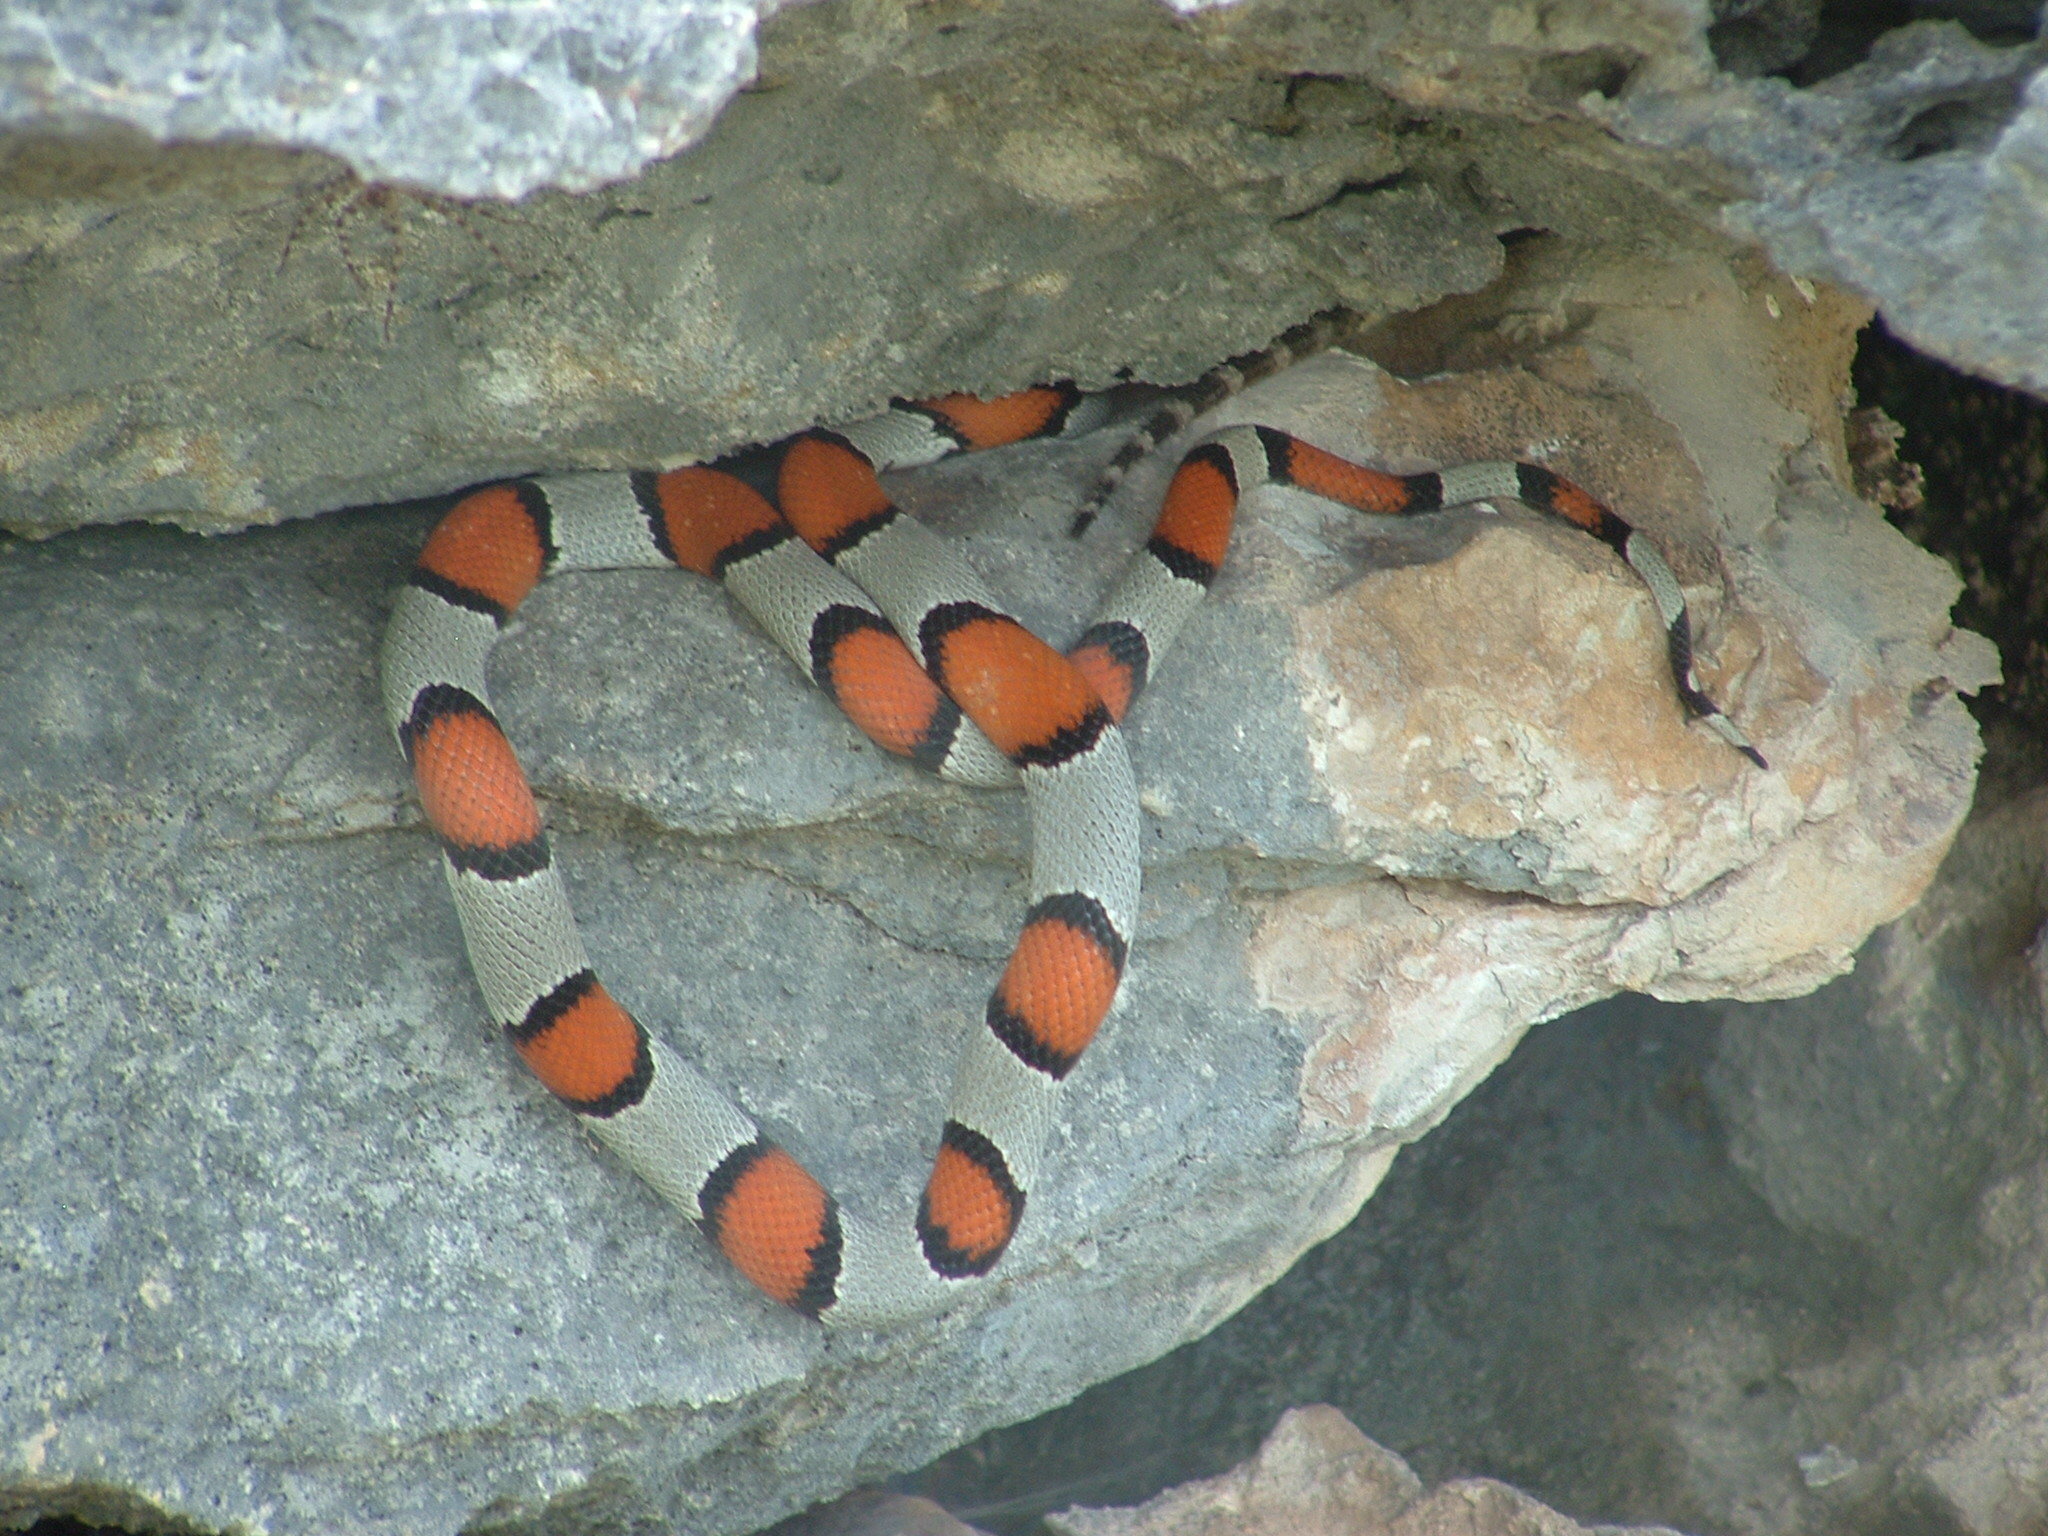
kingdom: Animalia
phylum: Chordata
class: Squamata
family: Colubridae
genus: Lampropeltis
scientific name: Lampropeltis alterna
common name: Gray-banded kingsnake
